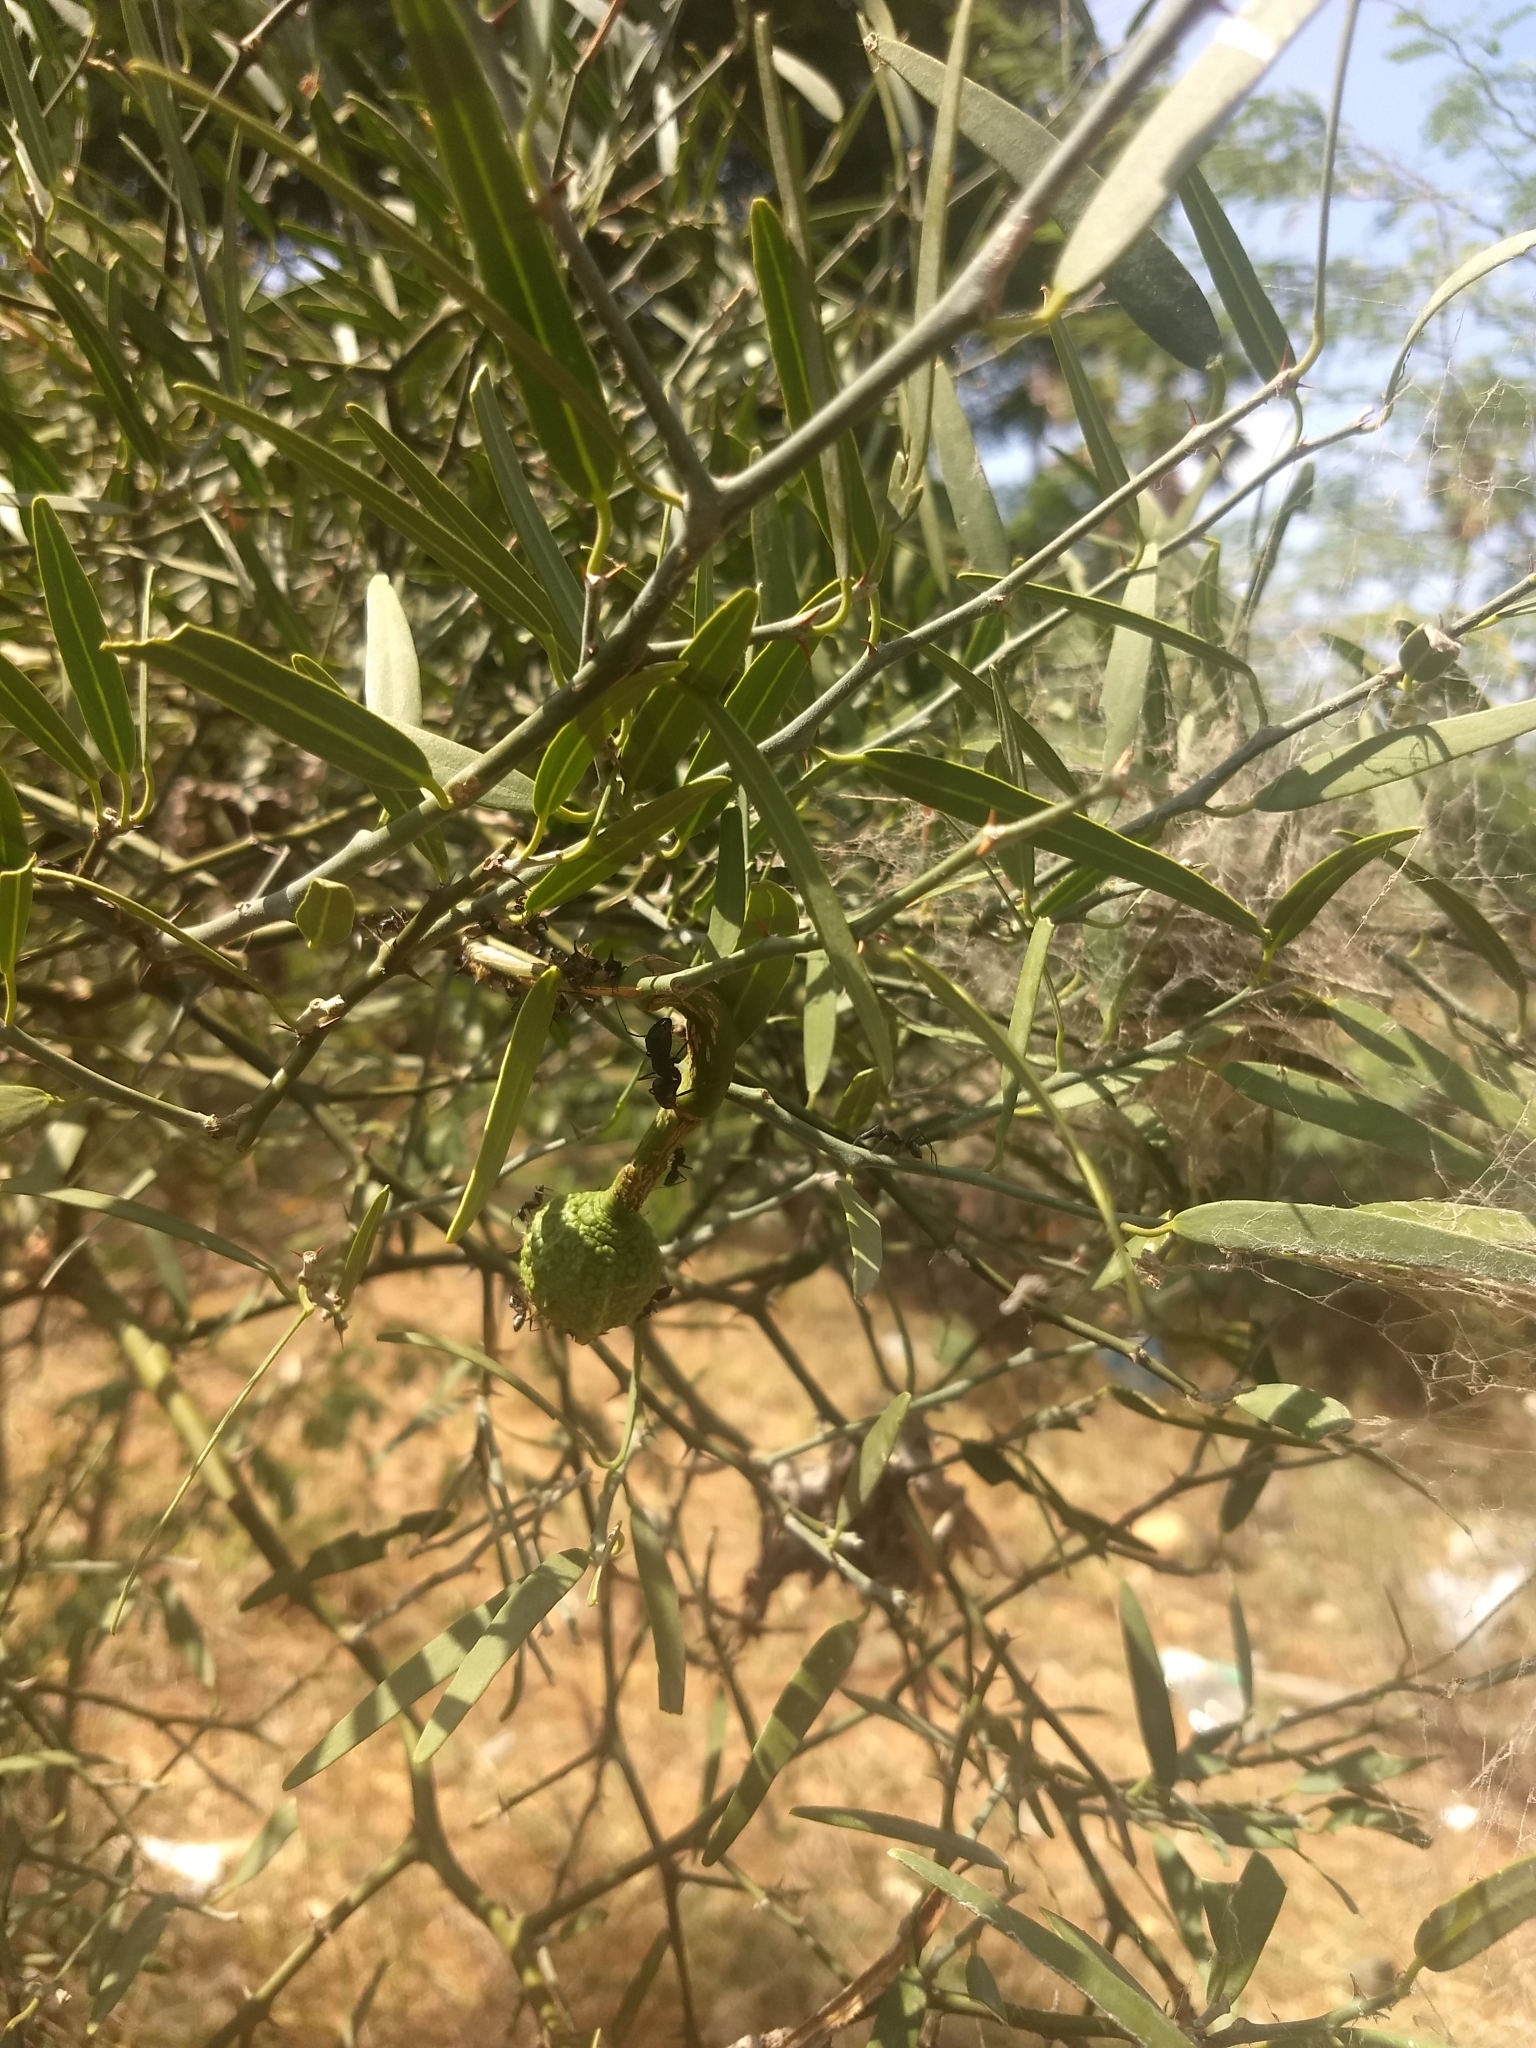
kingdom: Plantae
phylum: Tracheophyta
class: Magnoliopsida
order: Brassicales
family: Capparaceae
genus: Capparis
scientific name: Capparis divaricata
